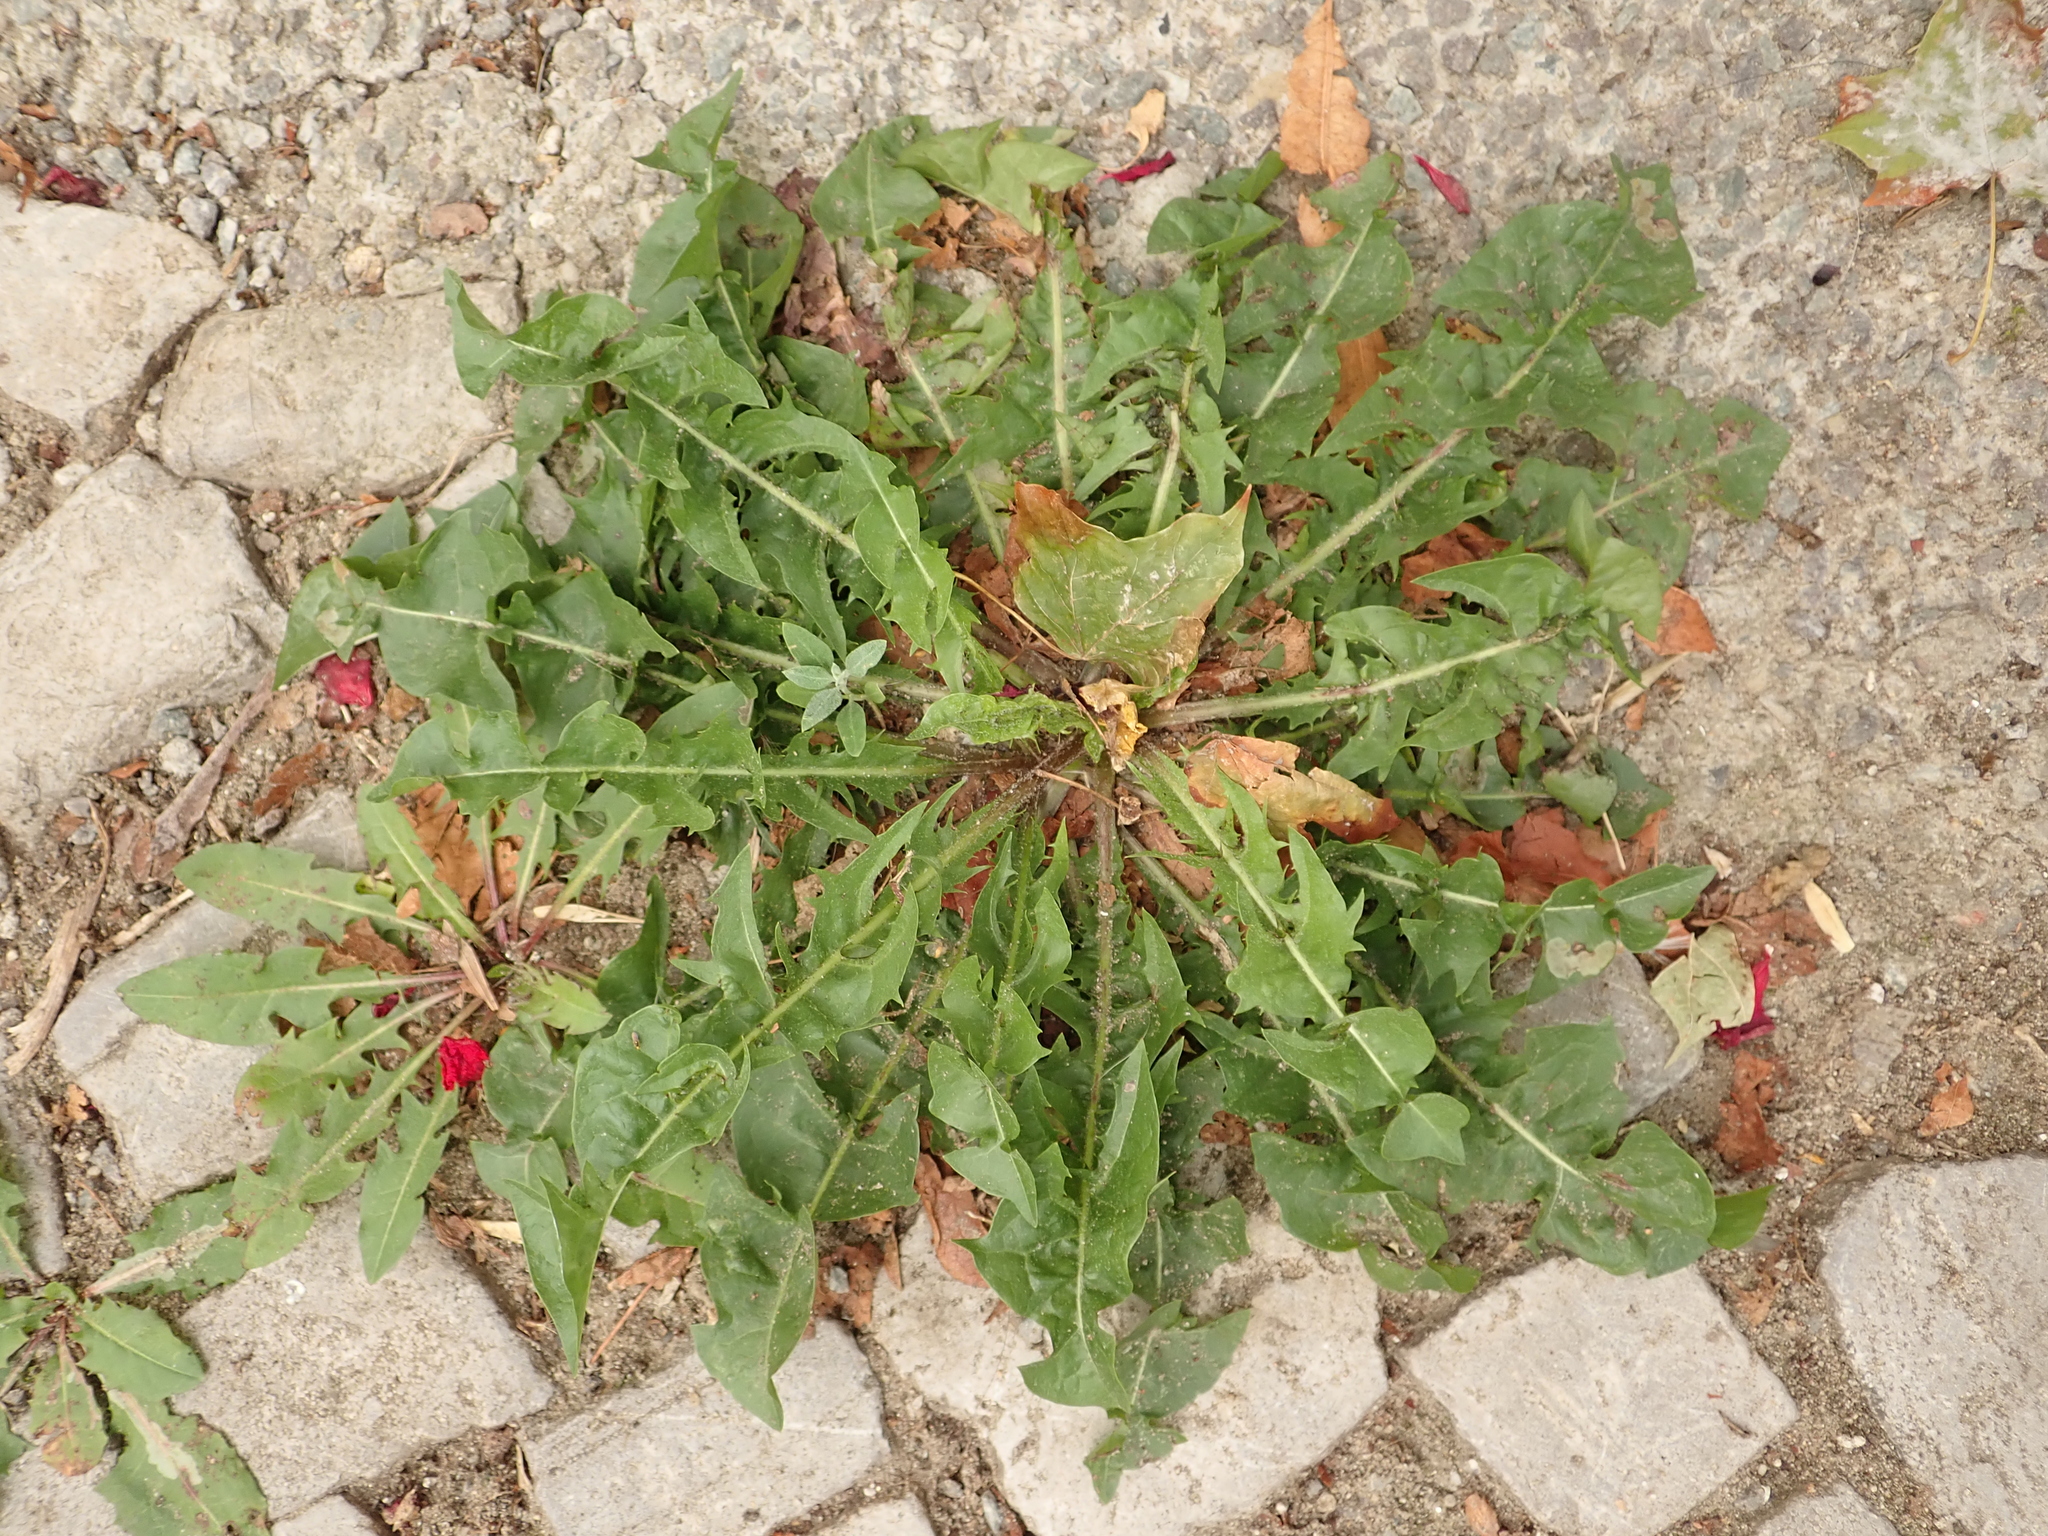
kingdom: Plantae
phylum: Tracheophyta
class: Magnoliopsida
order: Asterales
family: Asteraceae
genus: Taraxacum
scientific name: Taraxacum officinale
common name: Common dandelion
